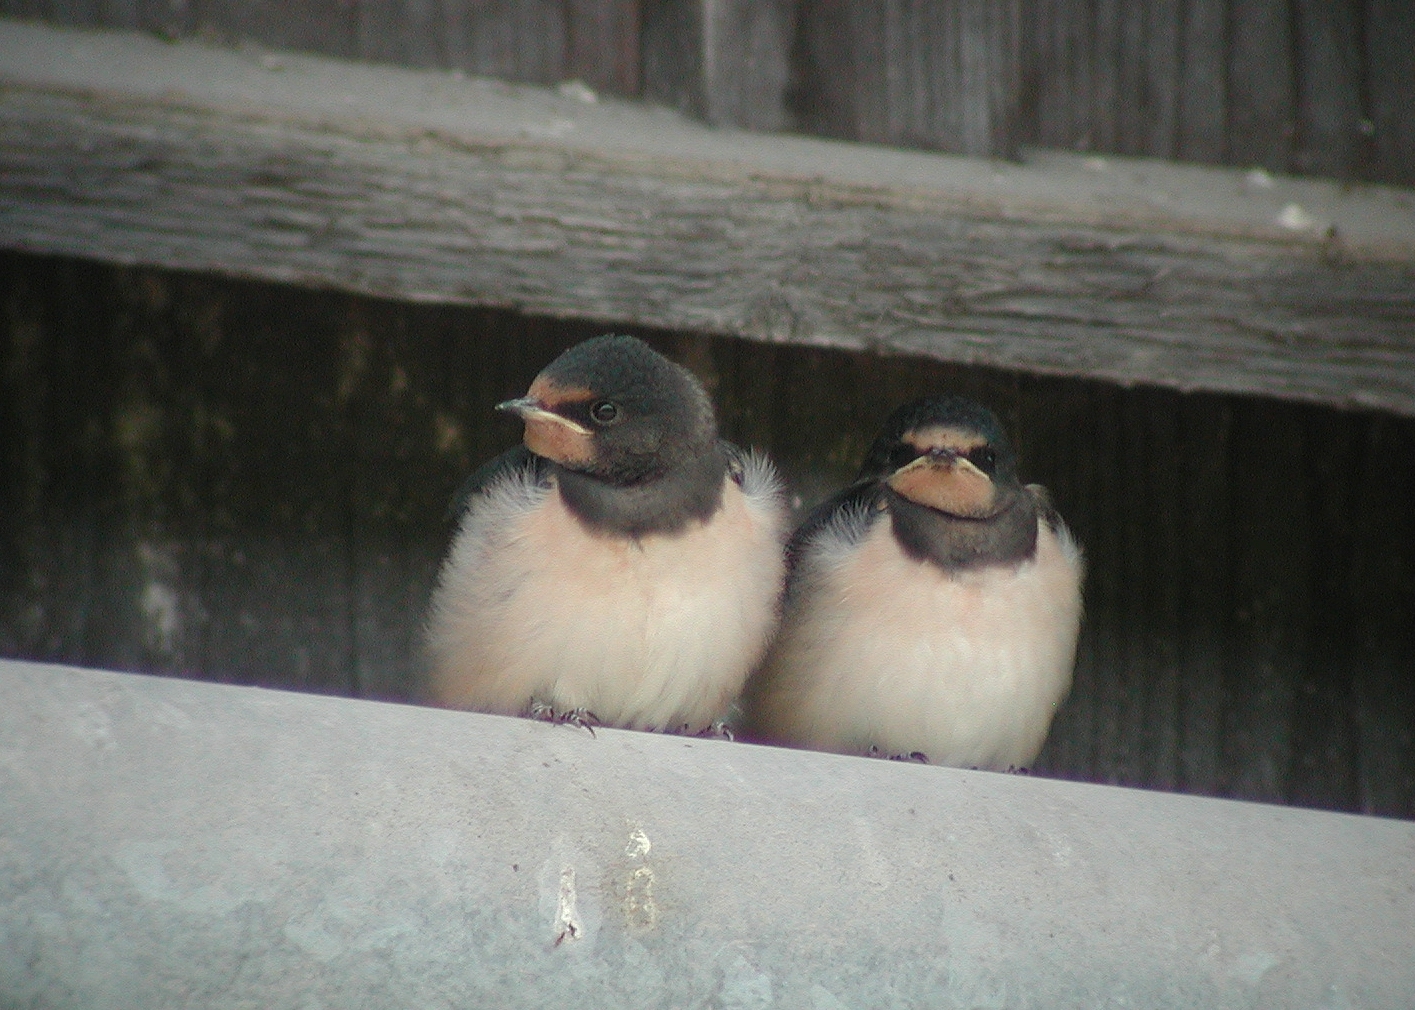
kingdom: Animalia
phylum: Chordata
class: Aves
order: Passeriformes
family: Hirundinidae
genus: Hirundo
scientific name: Hirundo rustica
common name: Barn swallow
